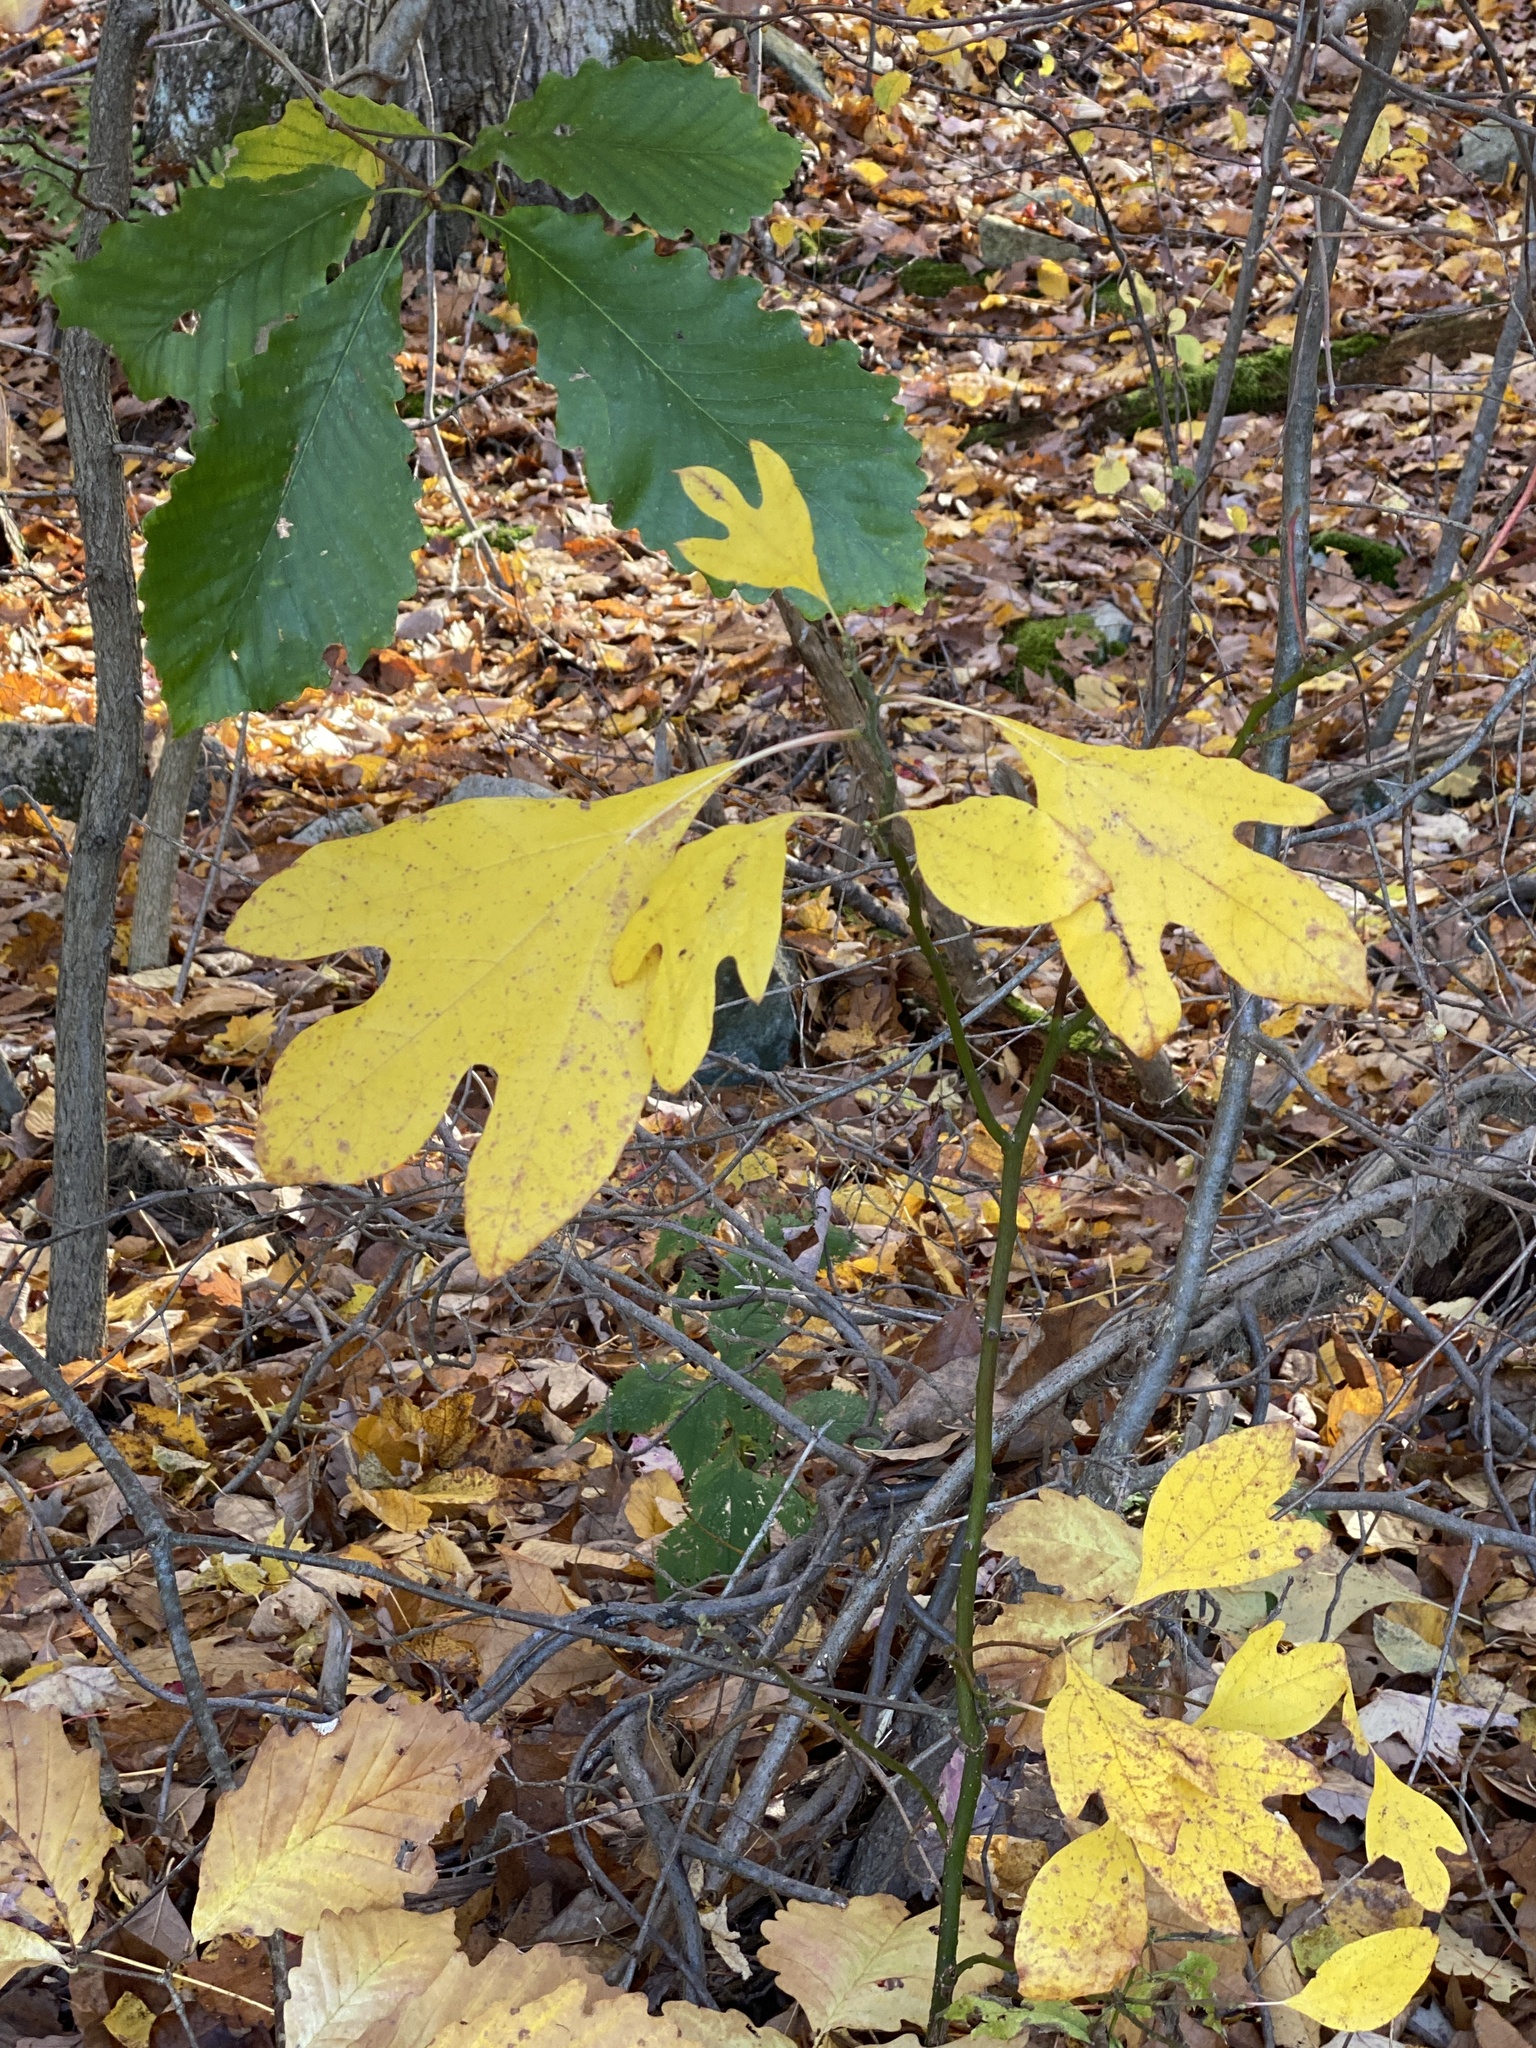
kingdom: Plantae
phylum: Tracheophyta
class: Magnoliopsida
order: Laurales
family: Lauraceae
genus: Sassafras
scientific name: Sassafras albidum
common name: Sassafras
